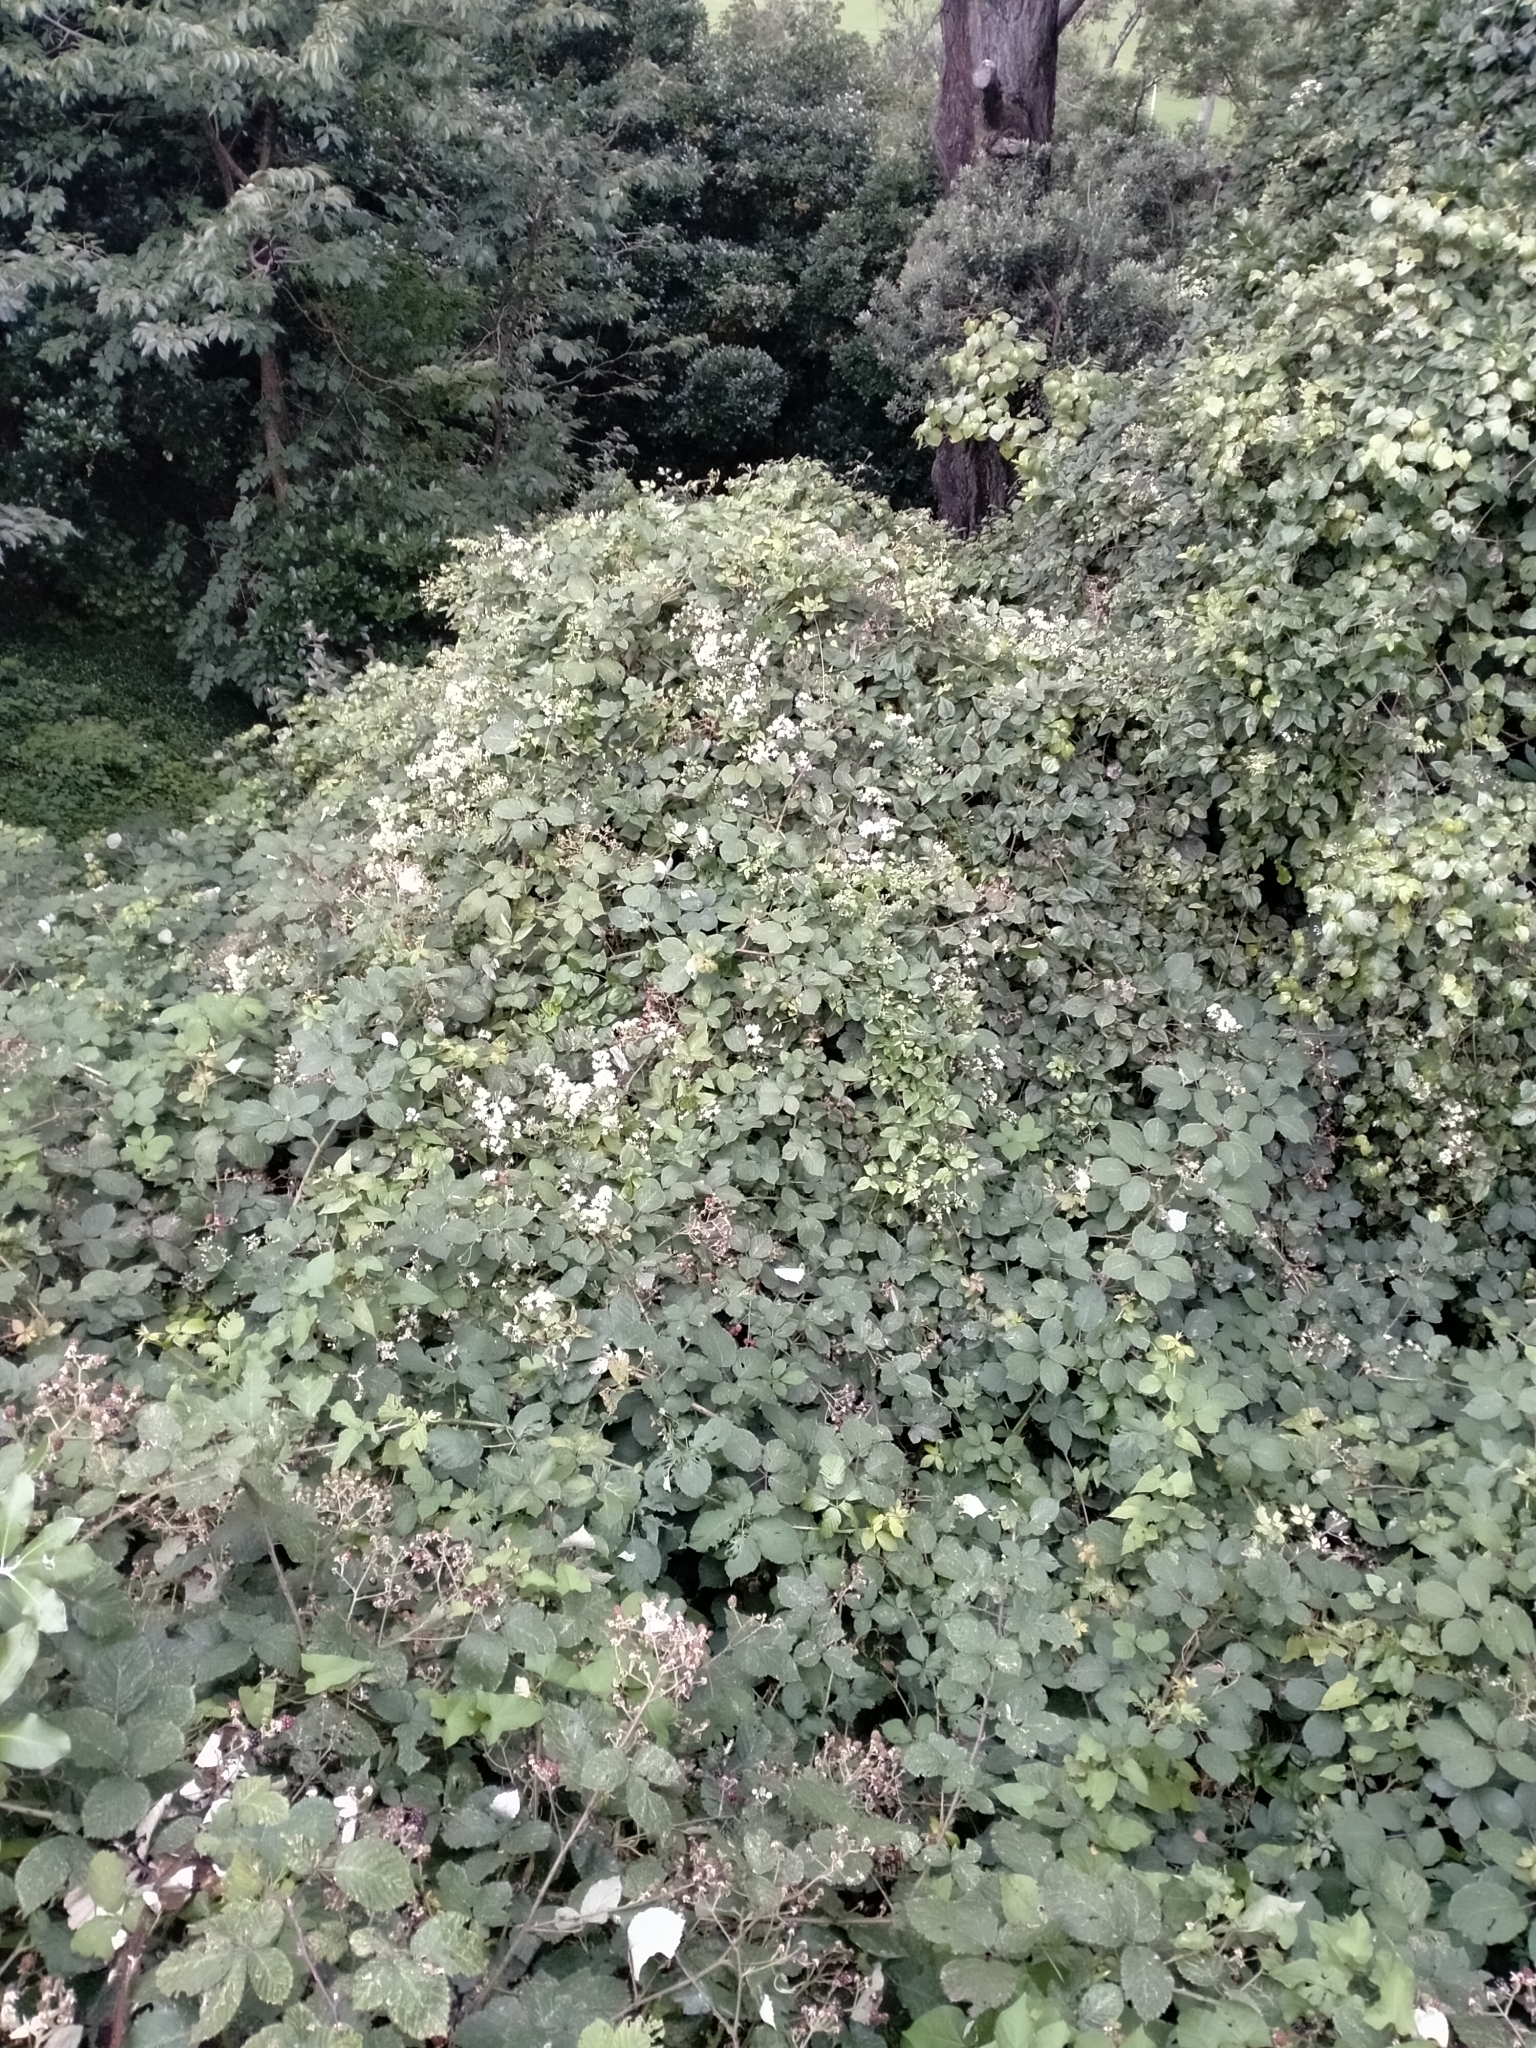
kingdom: Plantae
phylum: Tracheophyta
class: Magnoliopsida
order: Ranunculales
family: Ranunculaceae
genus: Clematis
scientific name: Clematis vitalba
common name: Evergreen clematis
